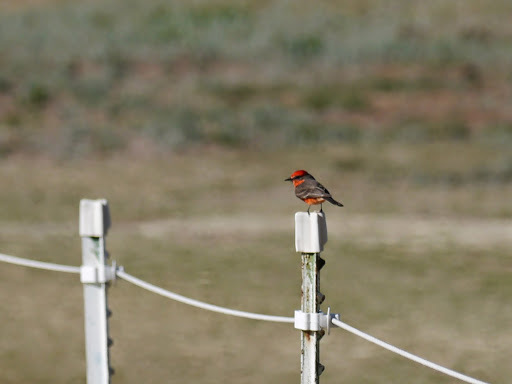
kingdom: Animalia
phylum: Chordata
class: Aves
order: Passeriformes
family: Tyrannidae
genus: Pyrocephalus
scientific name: Pyrocephalus rubinus
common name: Vermilion flycatcher
